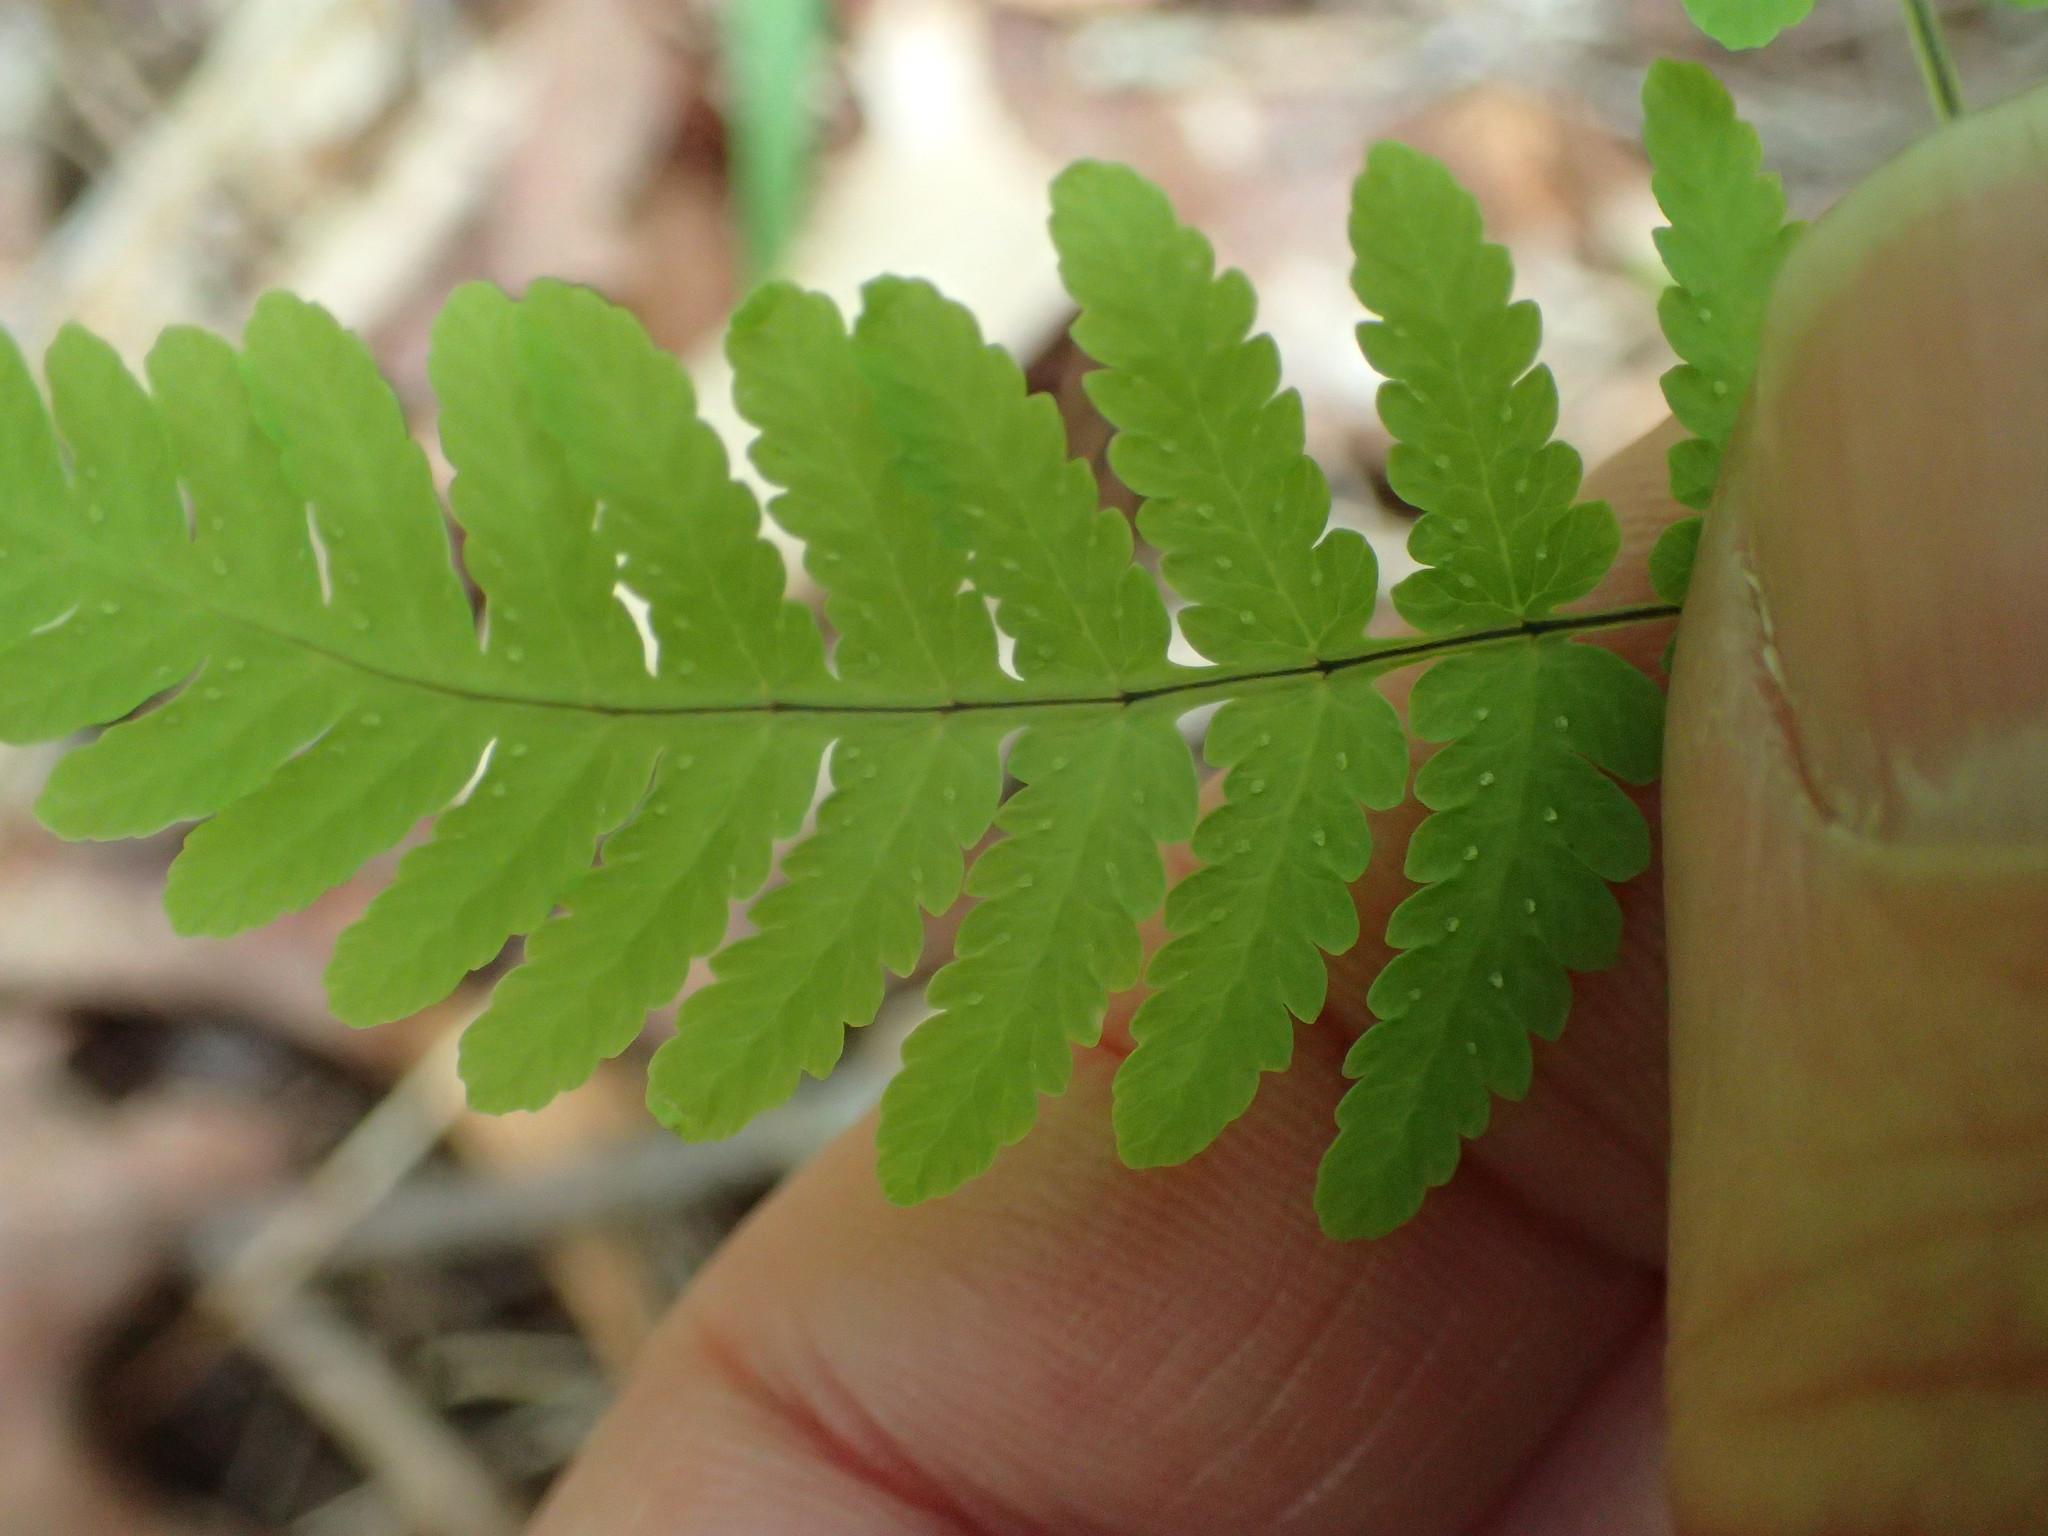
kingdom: Plantae
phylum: Tracheophyta
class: Polypodiopsida
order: Polypodiales
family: Cystopteridaceae
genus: Gymnocarpium
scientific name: Gymnocarpium dryopteris
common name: Oak fern
